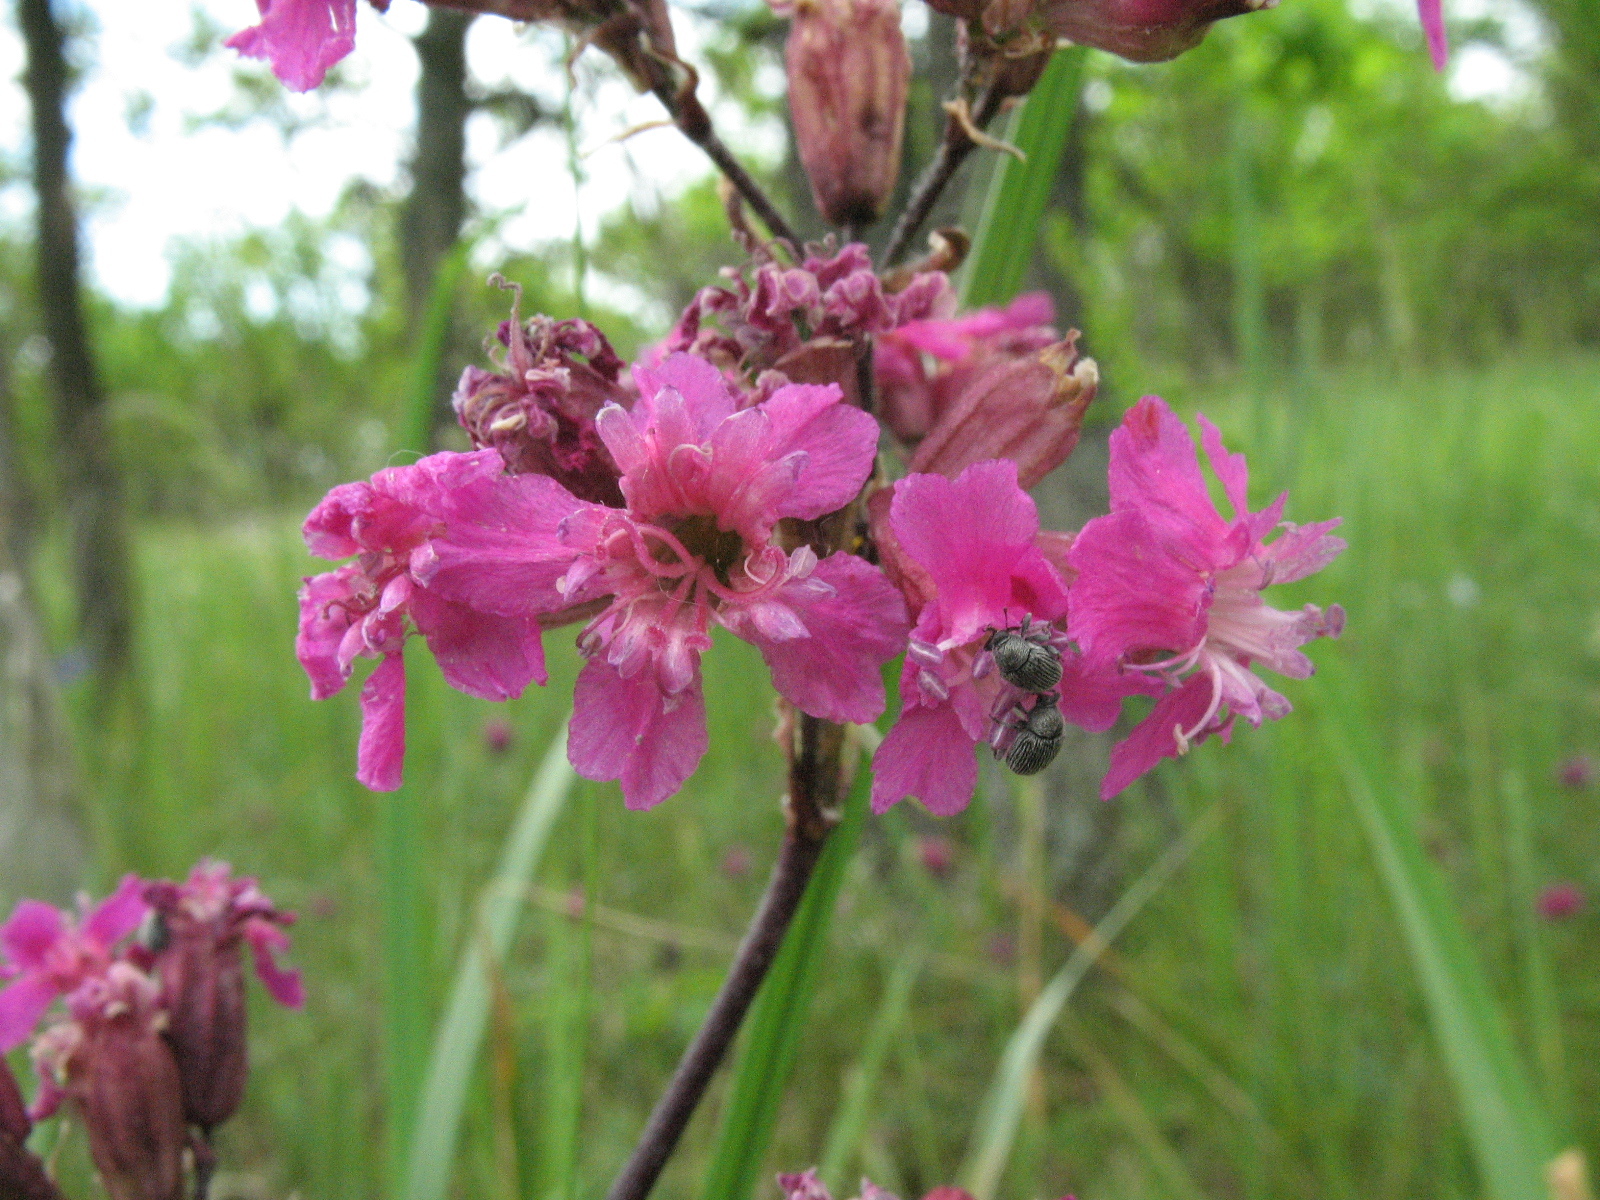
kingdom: Plantae
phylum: Tracheophyta
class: Magnoliopsida
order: Caryophyllales
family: Caryophyllaceae
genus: Viscaria
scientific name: Viscaria vulgaris
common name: Clammy campion
